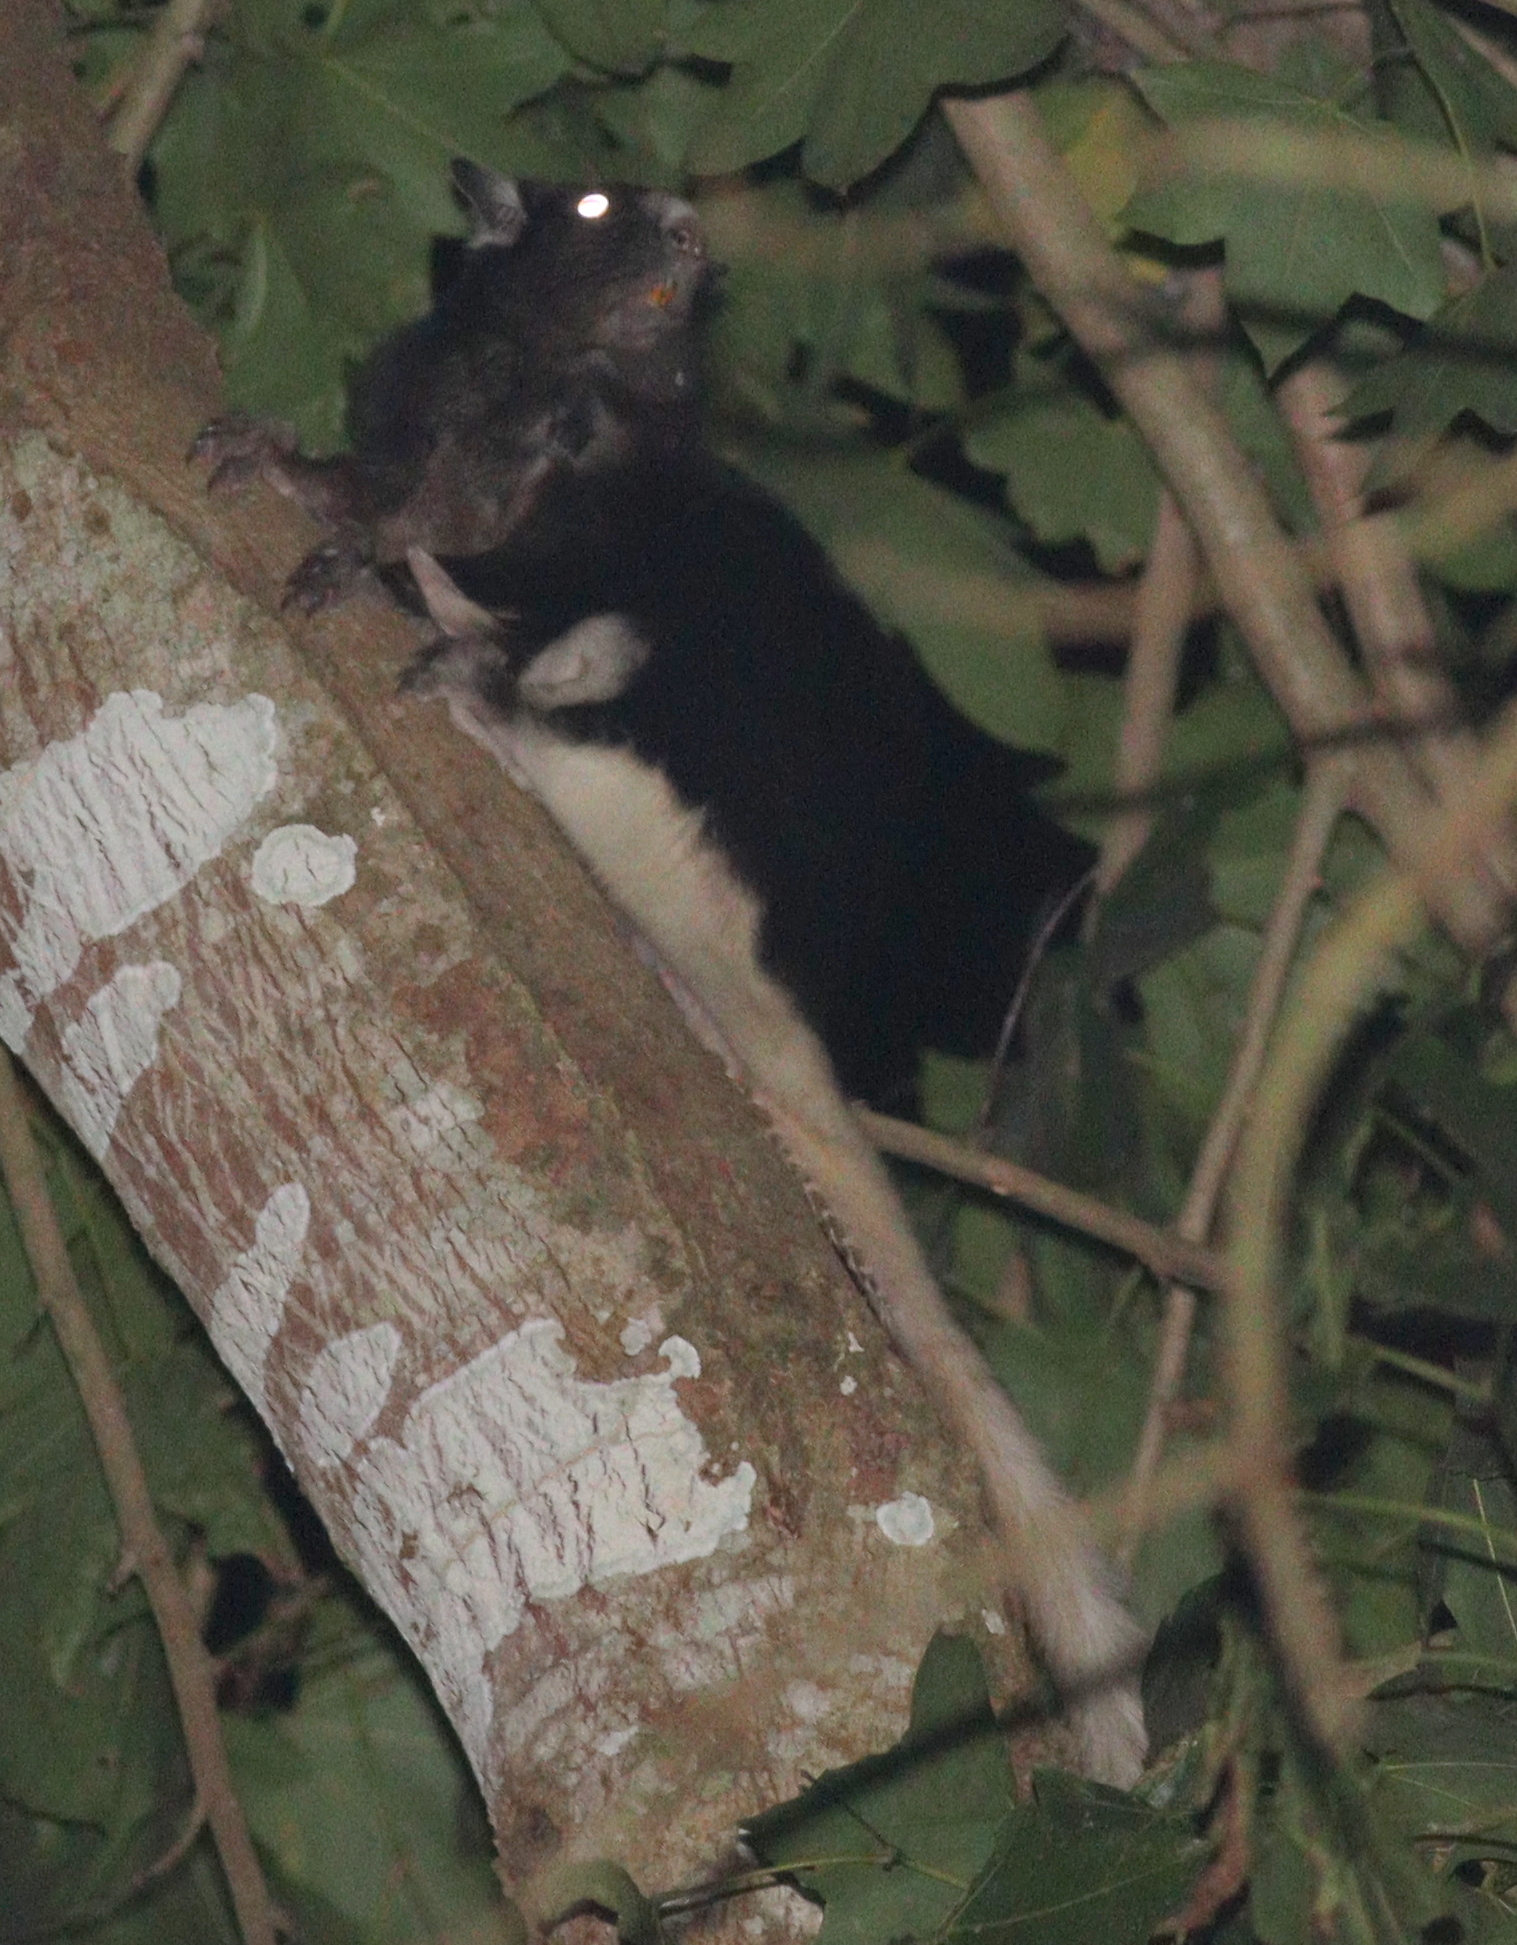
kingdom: Animalia
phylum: Chordata
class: Mammalia
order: Rodentia
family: Anomaluridae
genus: Anomalurus
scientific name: Anomalurus pelii
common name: Pel's flying squirrel
